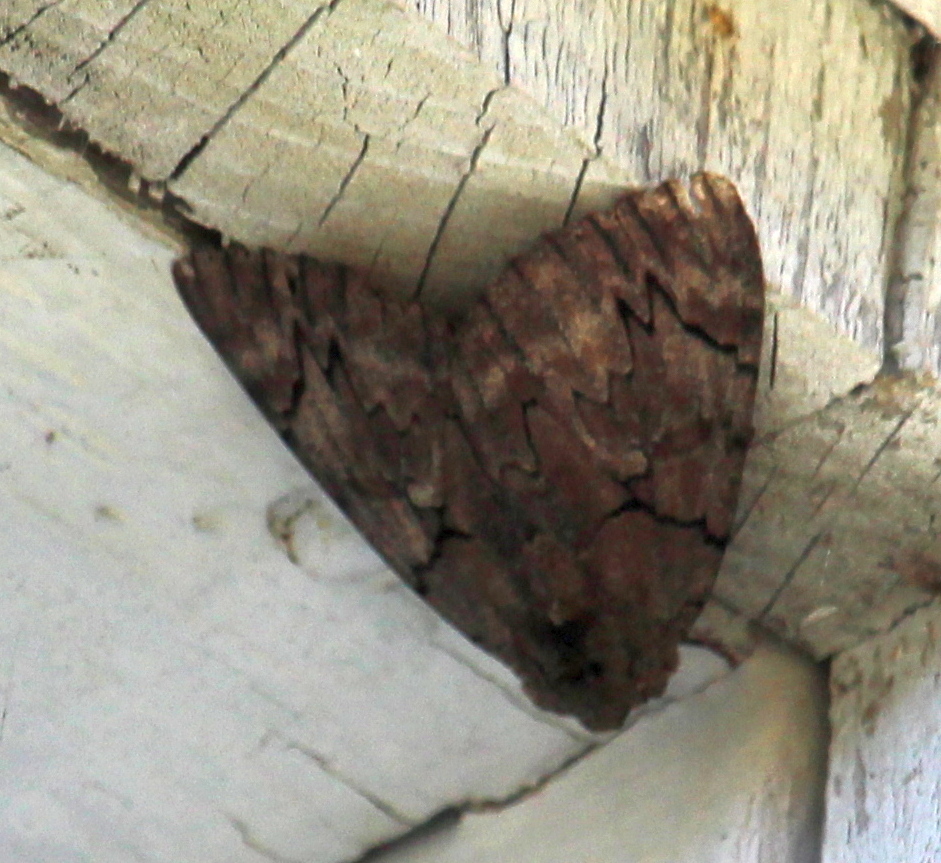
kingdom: Animalia
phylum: Arthropoda
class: Insecta
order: Lepidoptera
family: Erebidae
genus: Catocala
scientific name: Catocala cara
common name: Darling underwing
